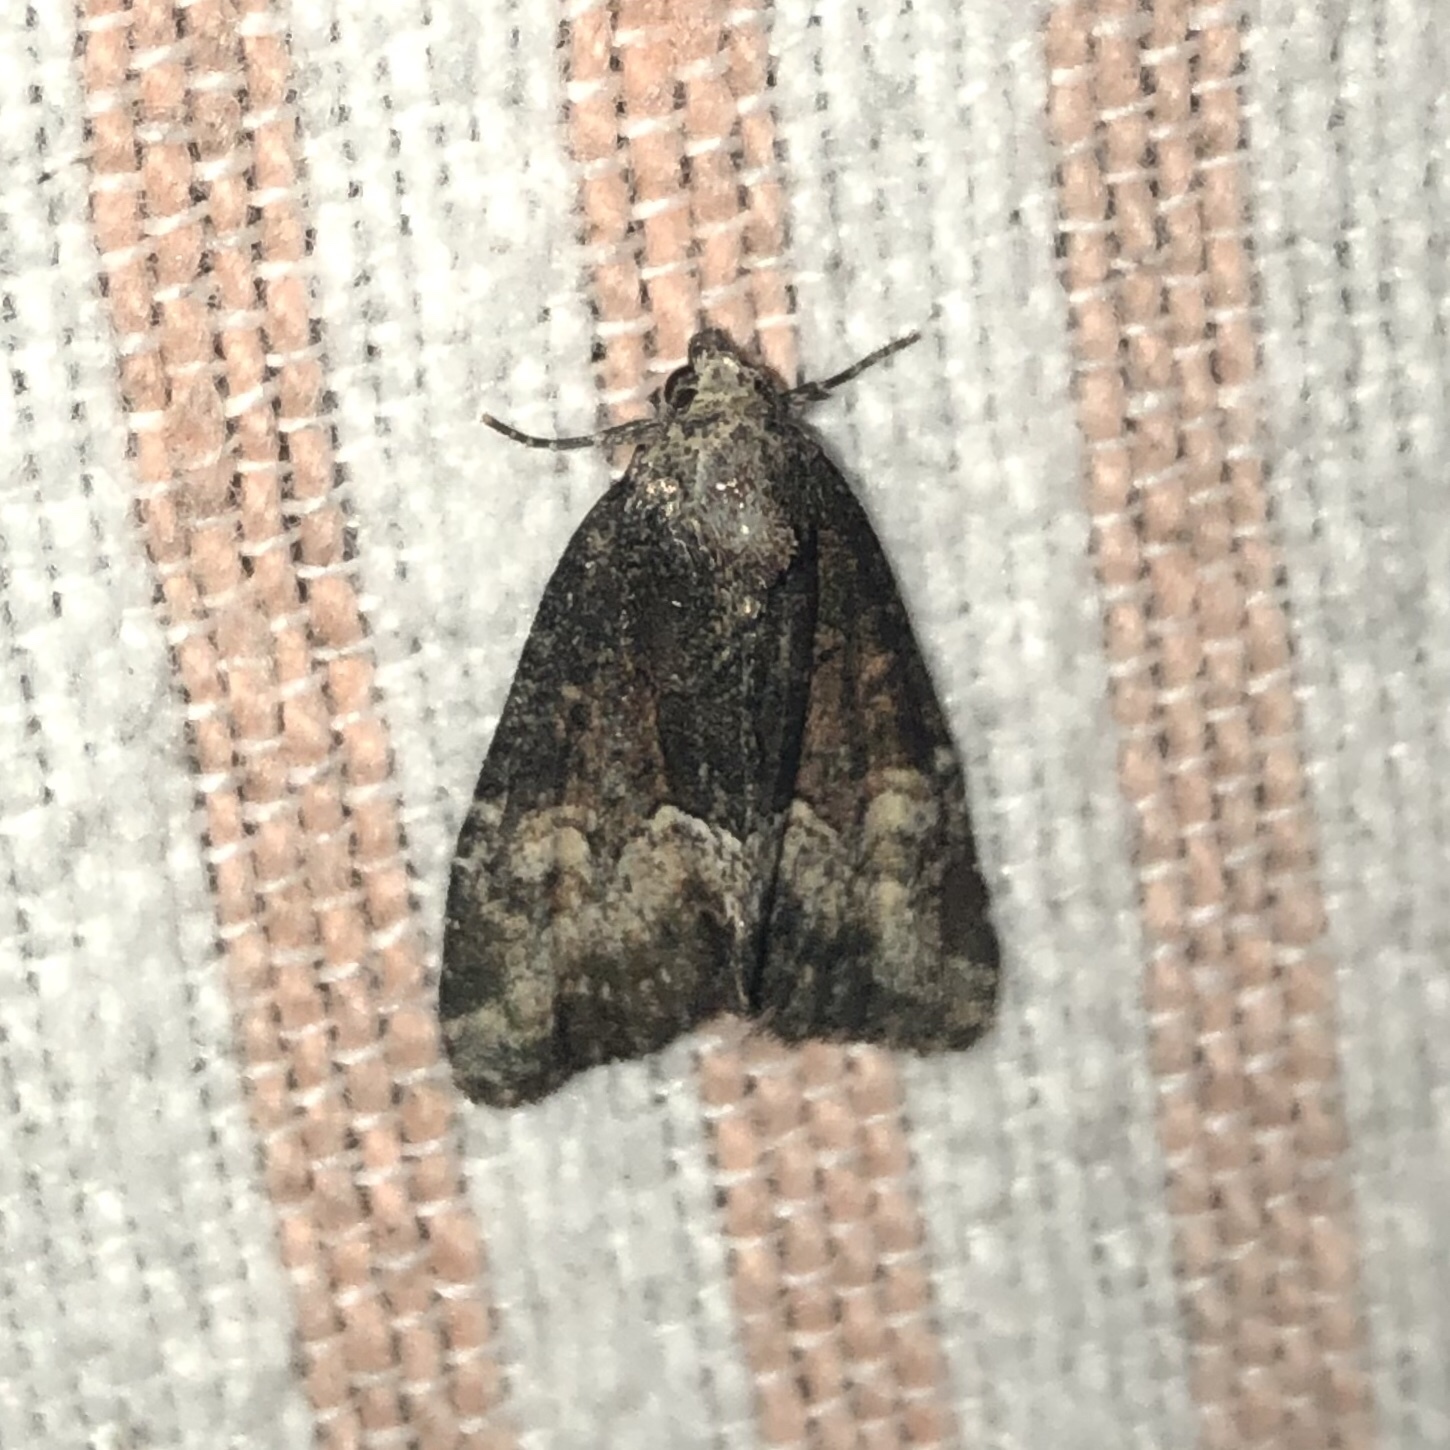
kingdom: Animalia
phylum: Arthropoda
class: Insecta
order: Lepidoptera
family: Noctuidae
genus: Neoligia
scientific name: Neoligia subjuncta
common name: Connected brocade
